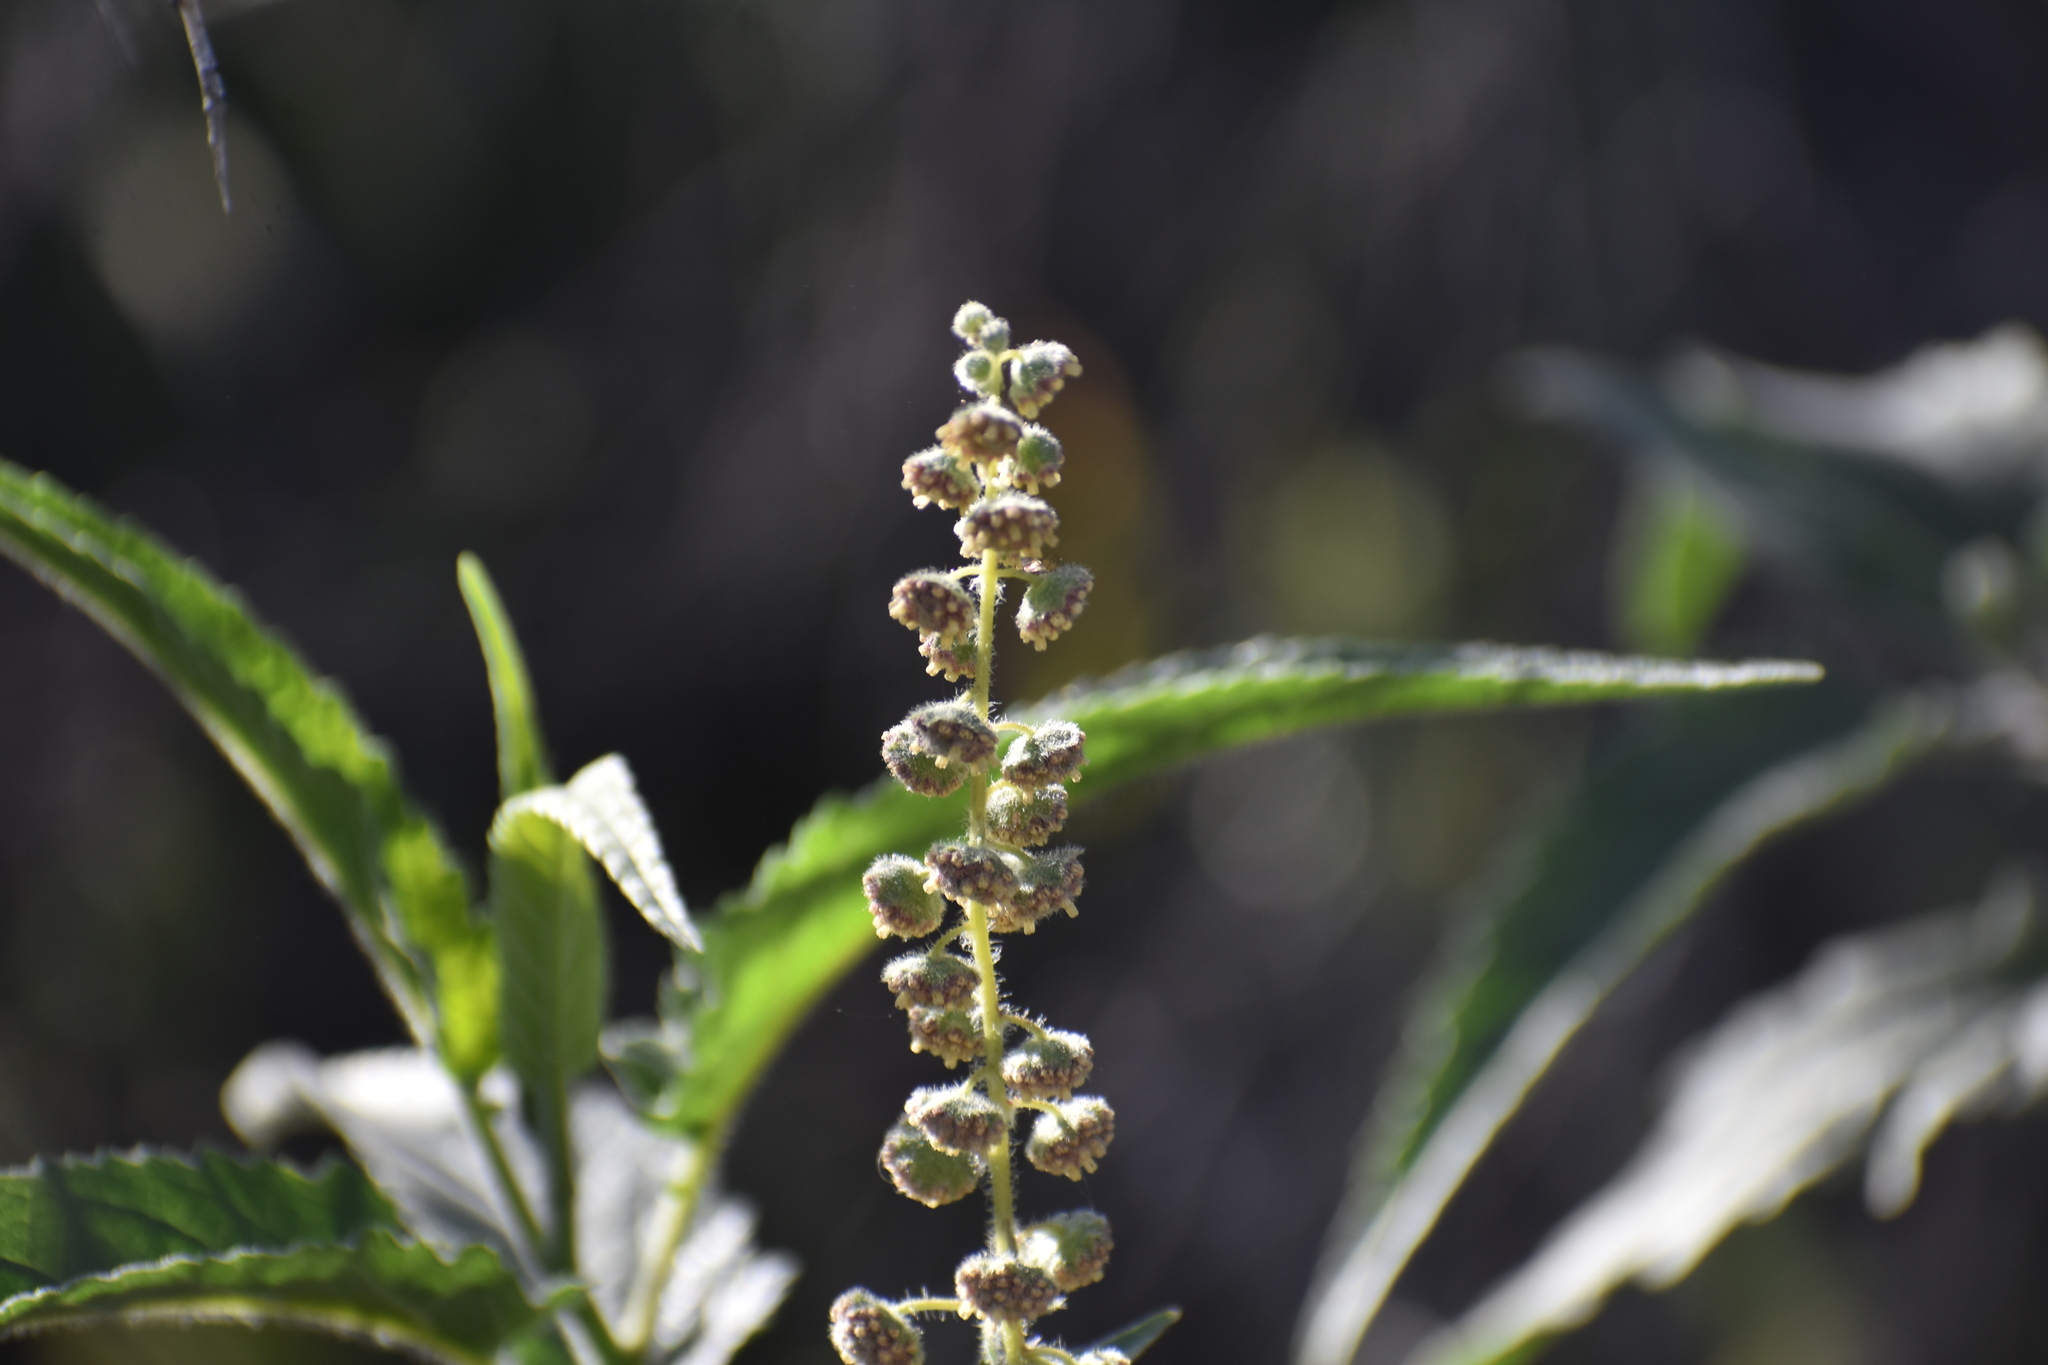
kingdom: Plantae
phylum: Tracheophyta
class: Magnoliopsida
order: Asterales
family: Asteraceae
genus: Ambrosia
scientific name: Ambrosia ambrosioides
